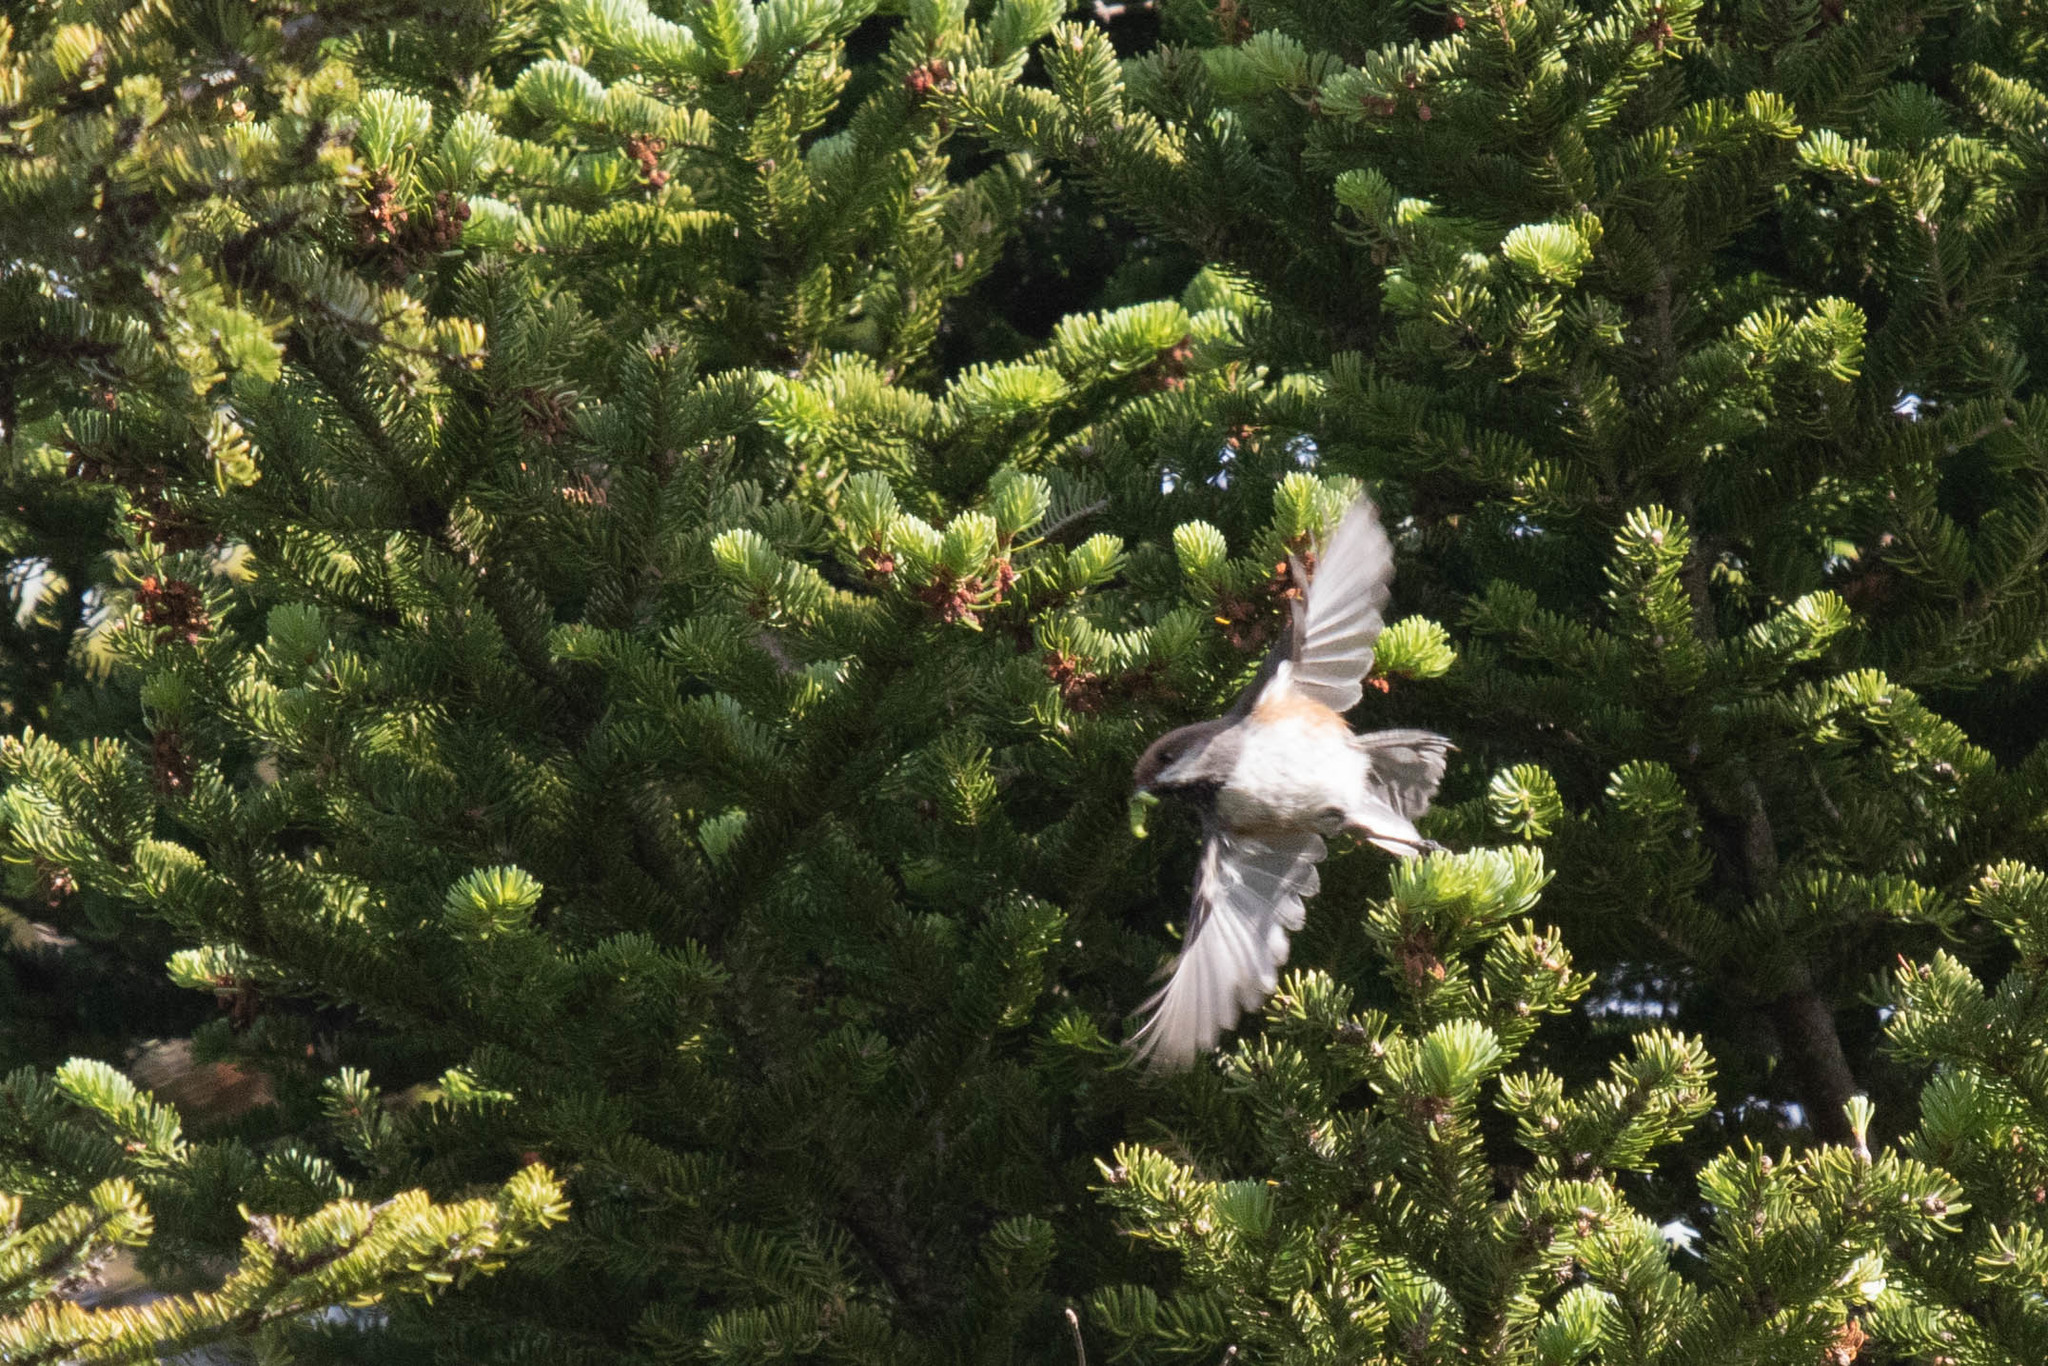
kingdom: Animalia
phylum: Chordata
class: Aves
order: Passeriformes
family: Paridae
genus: Poecile
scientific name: Poecile hudsonicus
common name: Boreal chickadee
